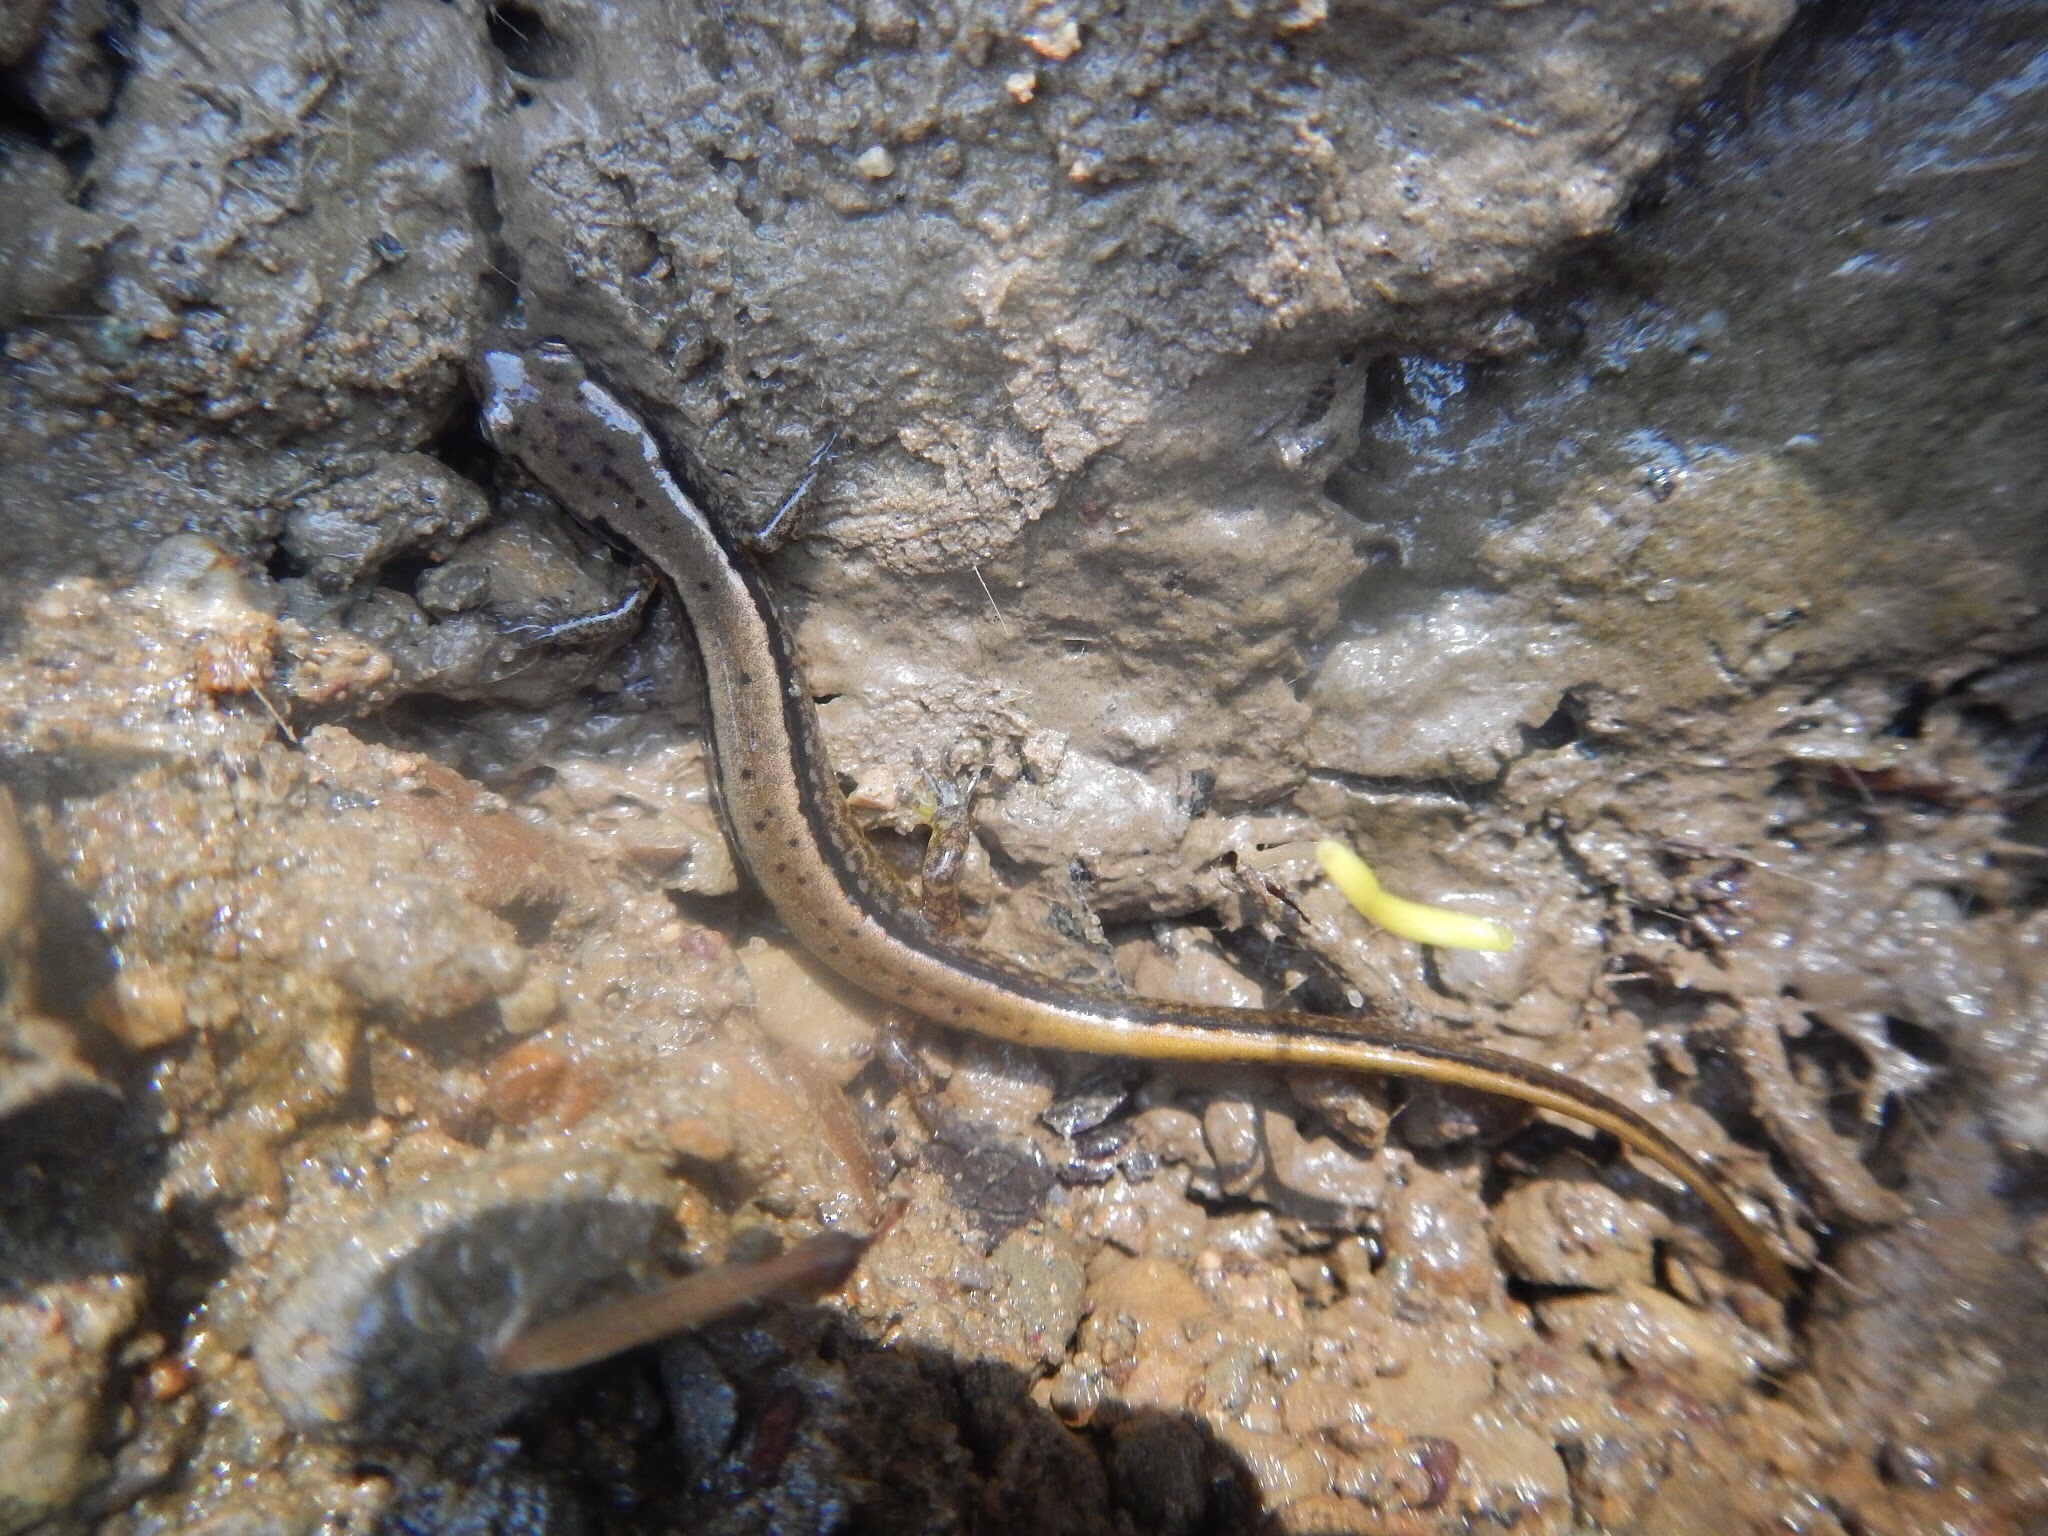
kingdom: Animalia
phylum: Chordata
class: Amphibia
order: Caudata
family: Plethodontidae
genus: Eurycea
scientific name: Eurycea bislineata
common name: Northern two-lined salamander
